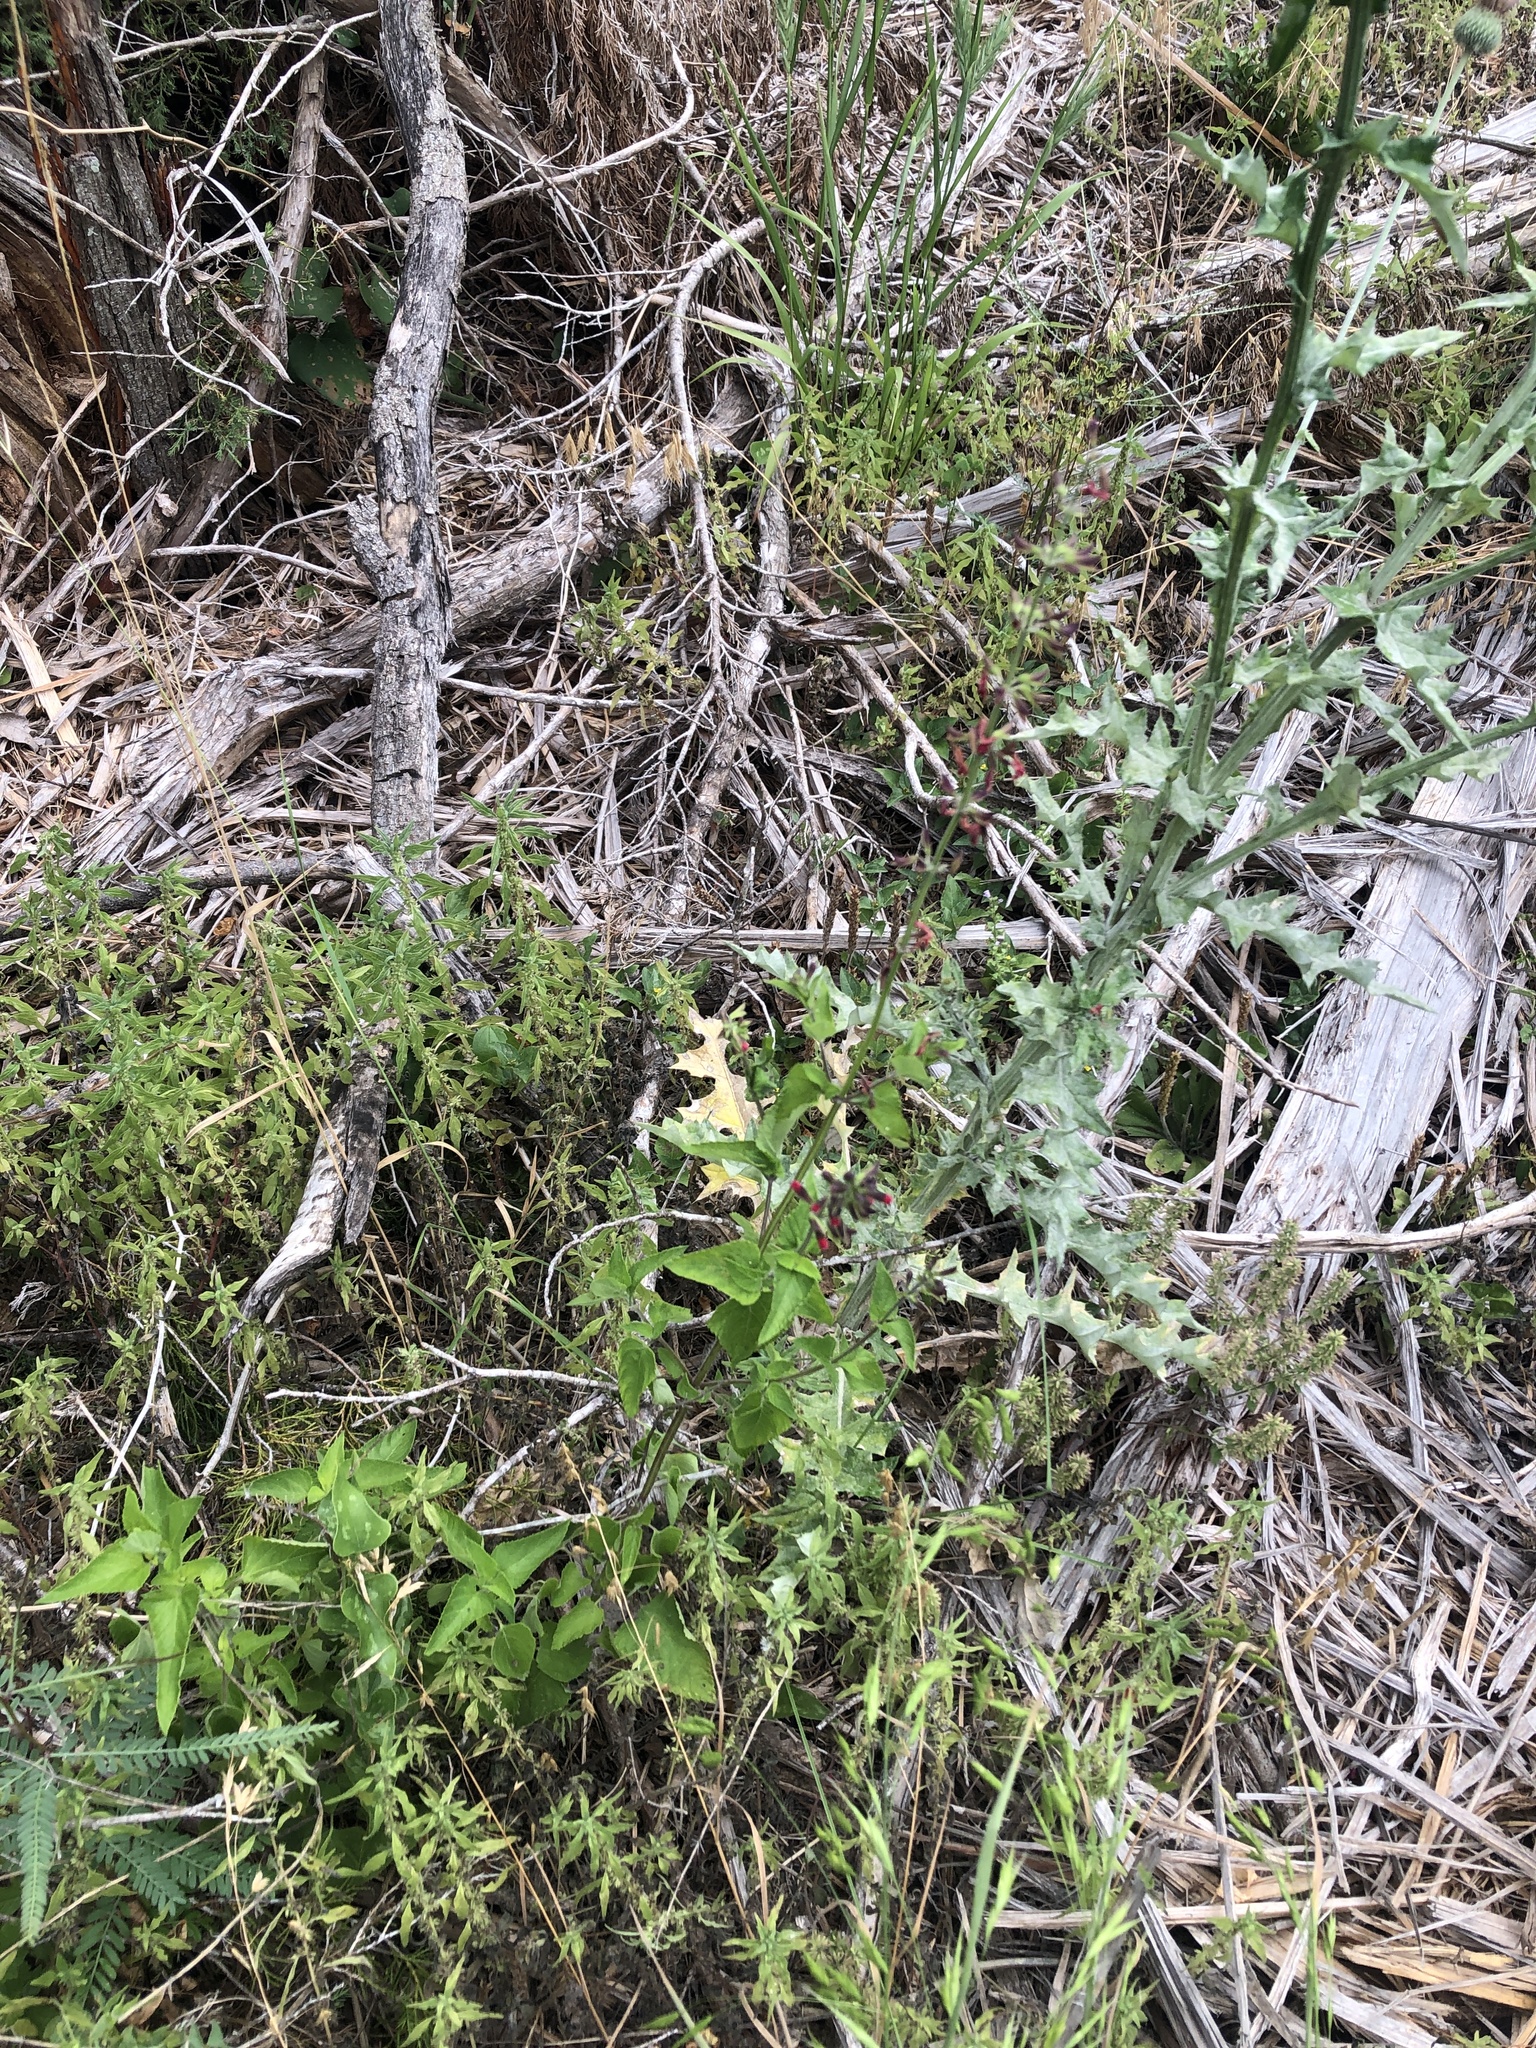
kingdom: Plantae
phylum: Tracheophyta
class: Magnoliopsida
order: Lamiales
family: Lamiaceae
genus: Salvia
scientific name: Salvia coccinea
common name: Blood sage
